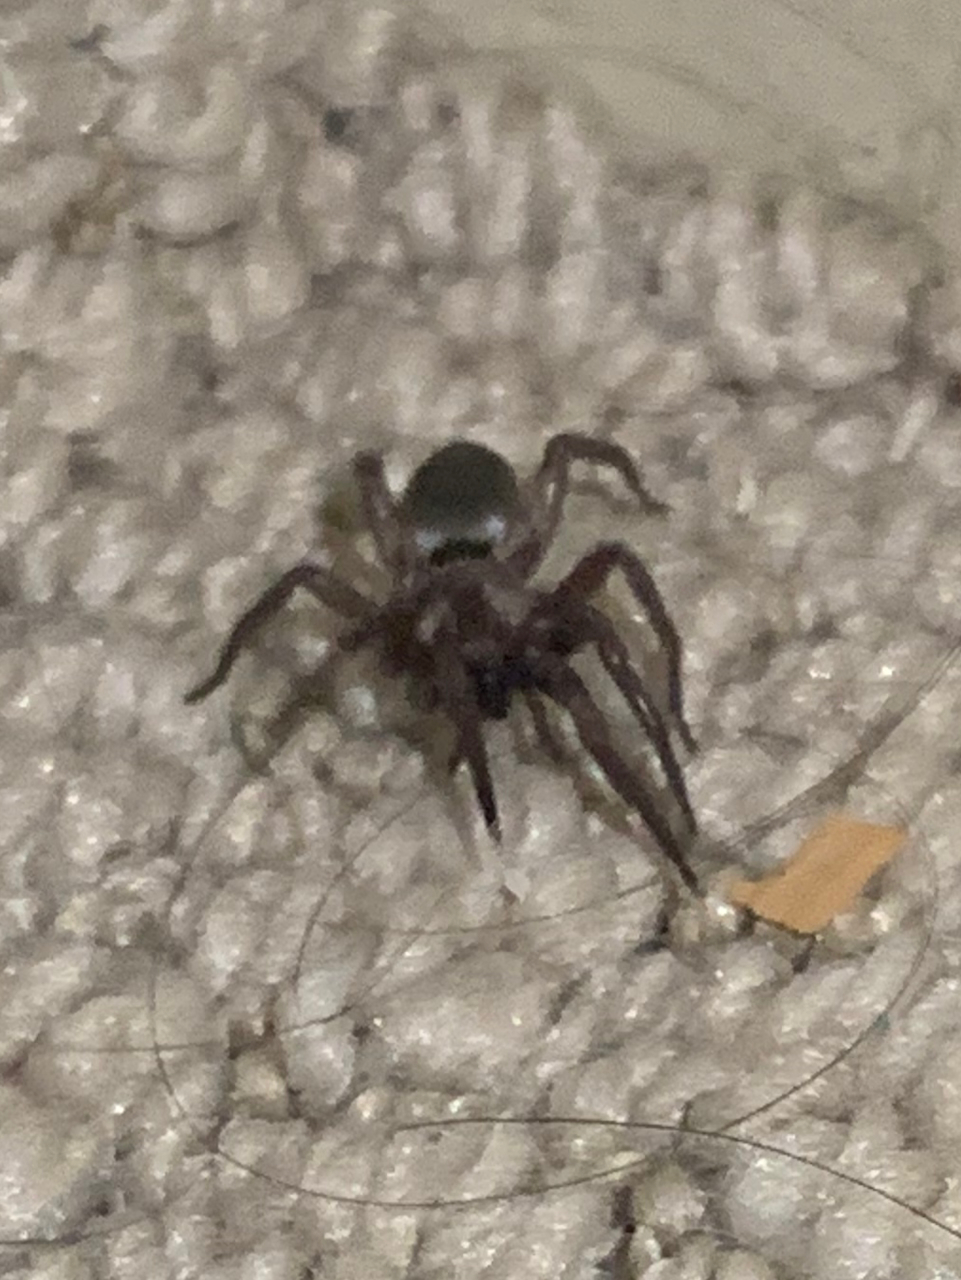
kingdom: Animalia
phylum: Arthropoda
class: Arachnida
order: Araneae
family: Gnaphosidae
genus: Scotophaeus
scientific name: Scotophaeus blackwalli
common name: Mouse spider
